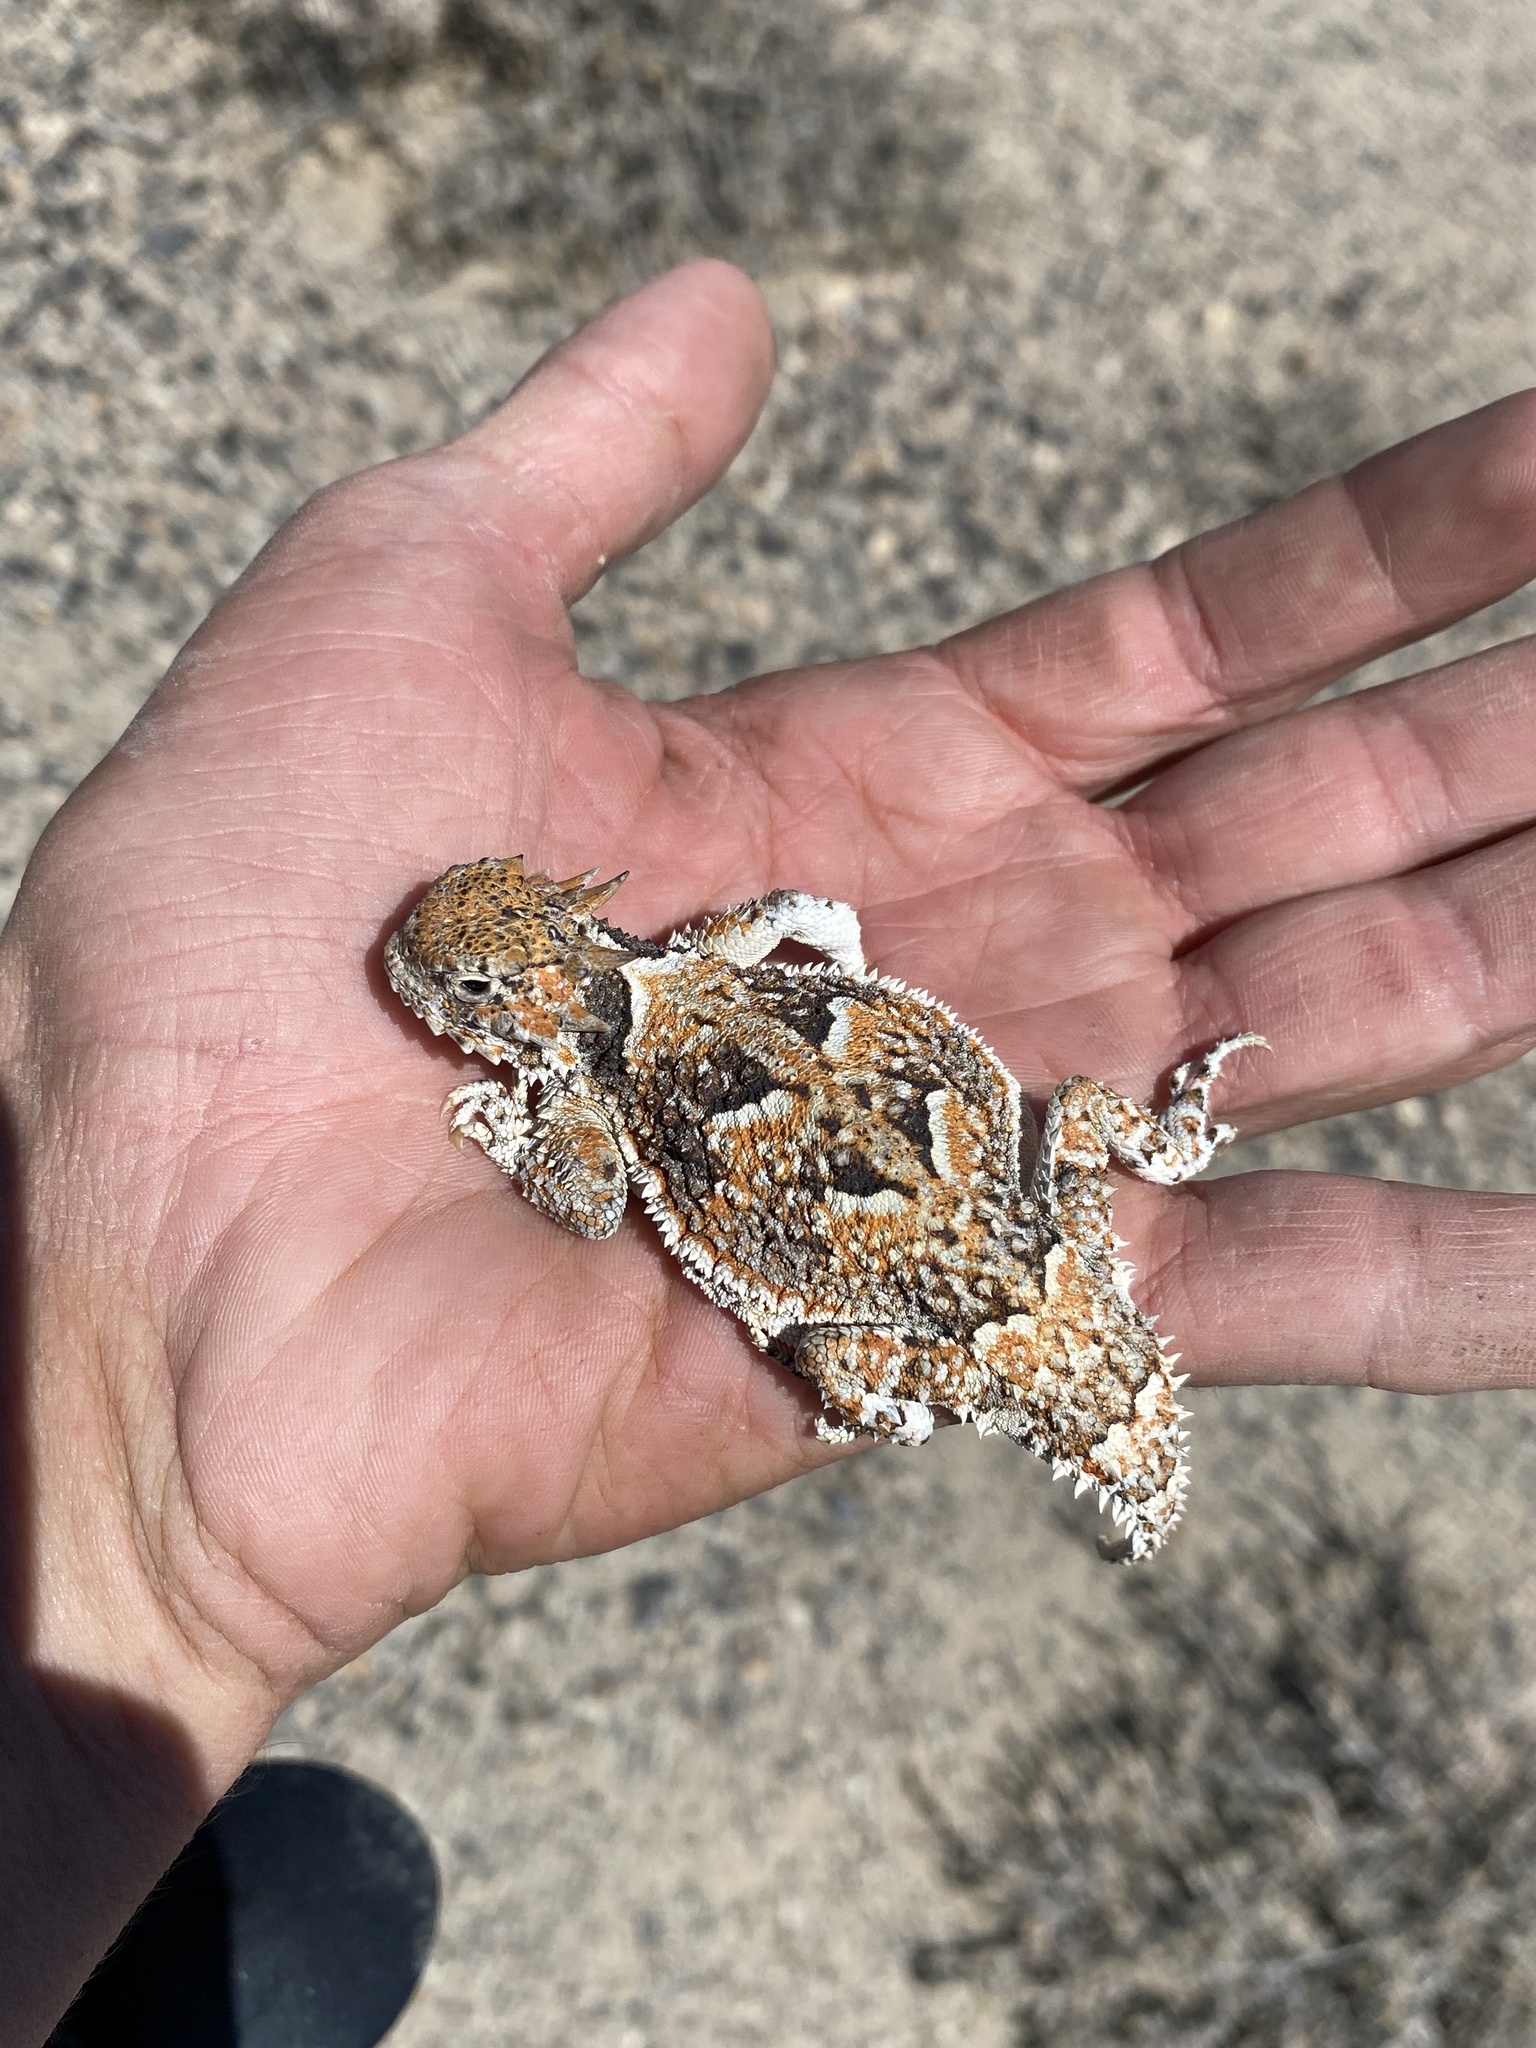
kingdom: Animalia
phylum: Chordata
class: Squamata
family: Phrynosomatidae
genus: Phrynosoma
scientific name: Phrynosoma platyrhinos
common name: Desert horned lizard
